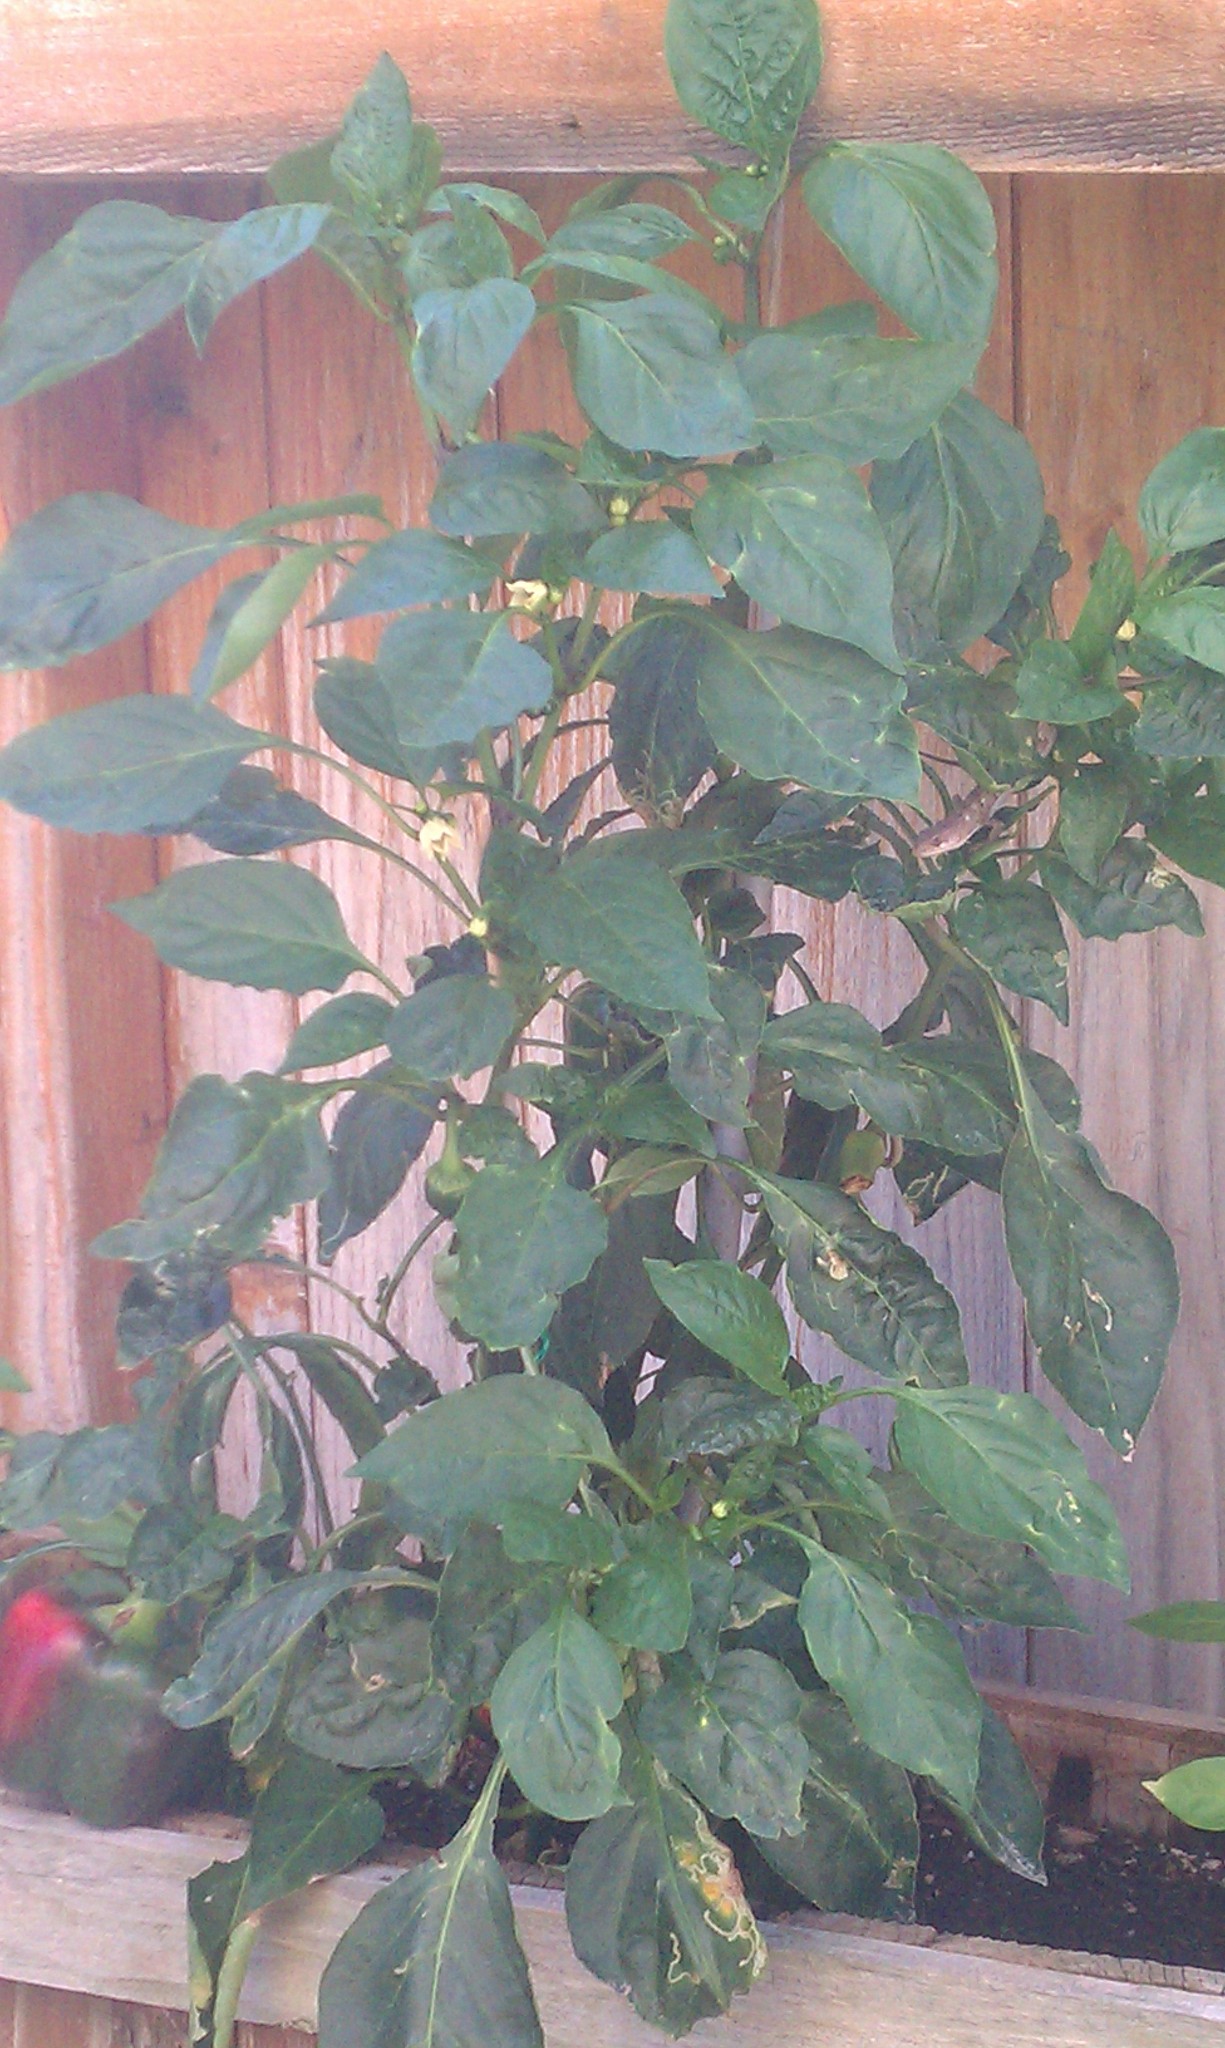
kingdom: Animalia
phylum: Chordata
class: Squamata
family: Anguidae
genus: Elgaria
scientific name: Elgaria multicarinata
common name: Southern alligator lizard
